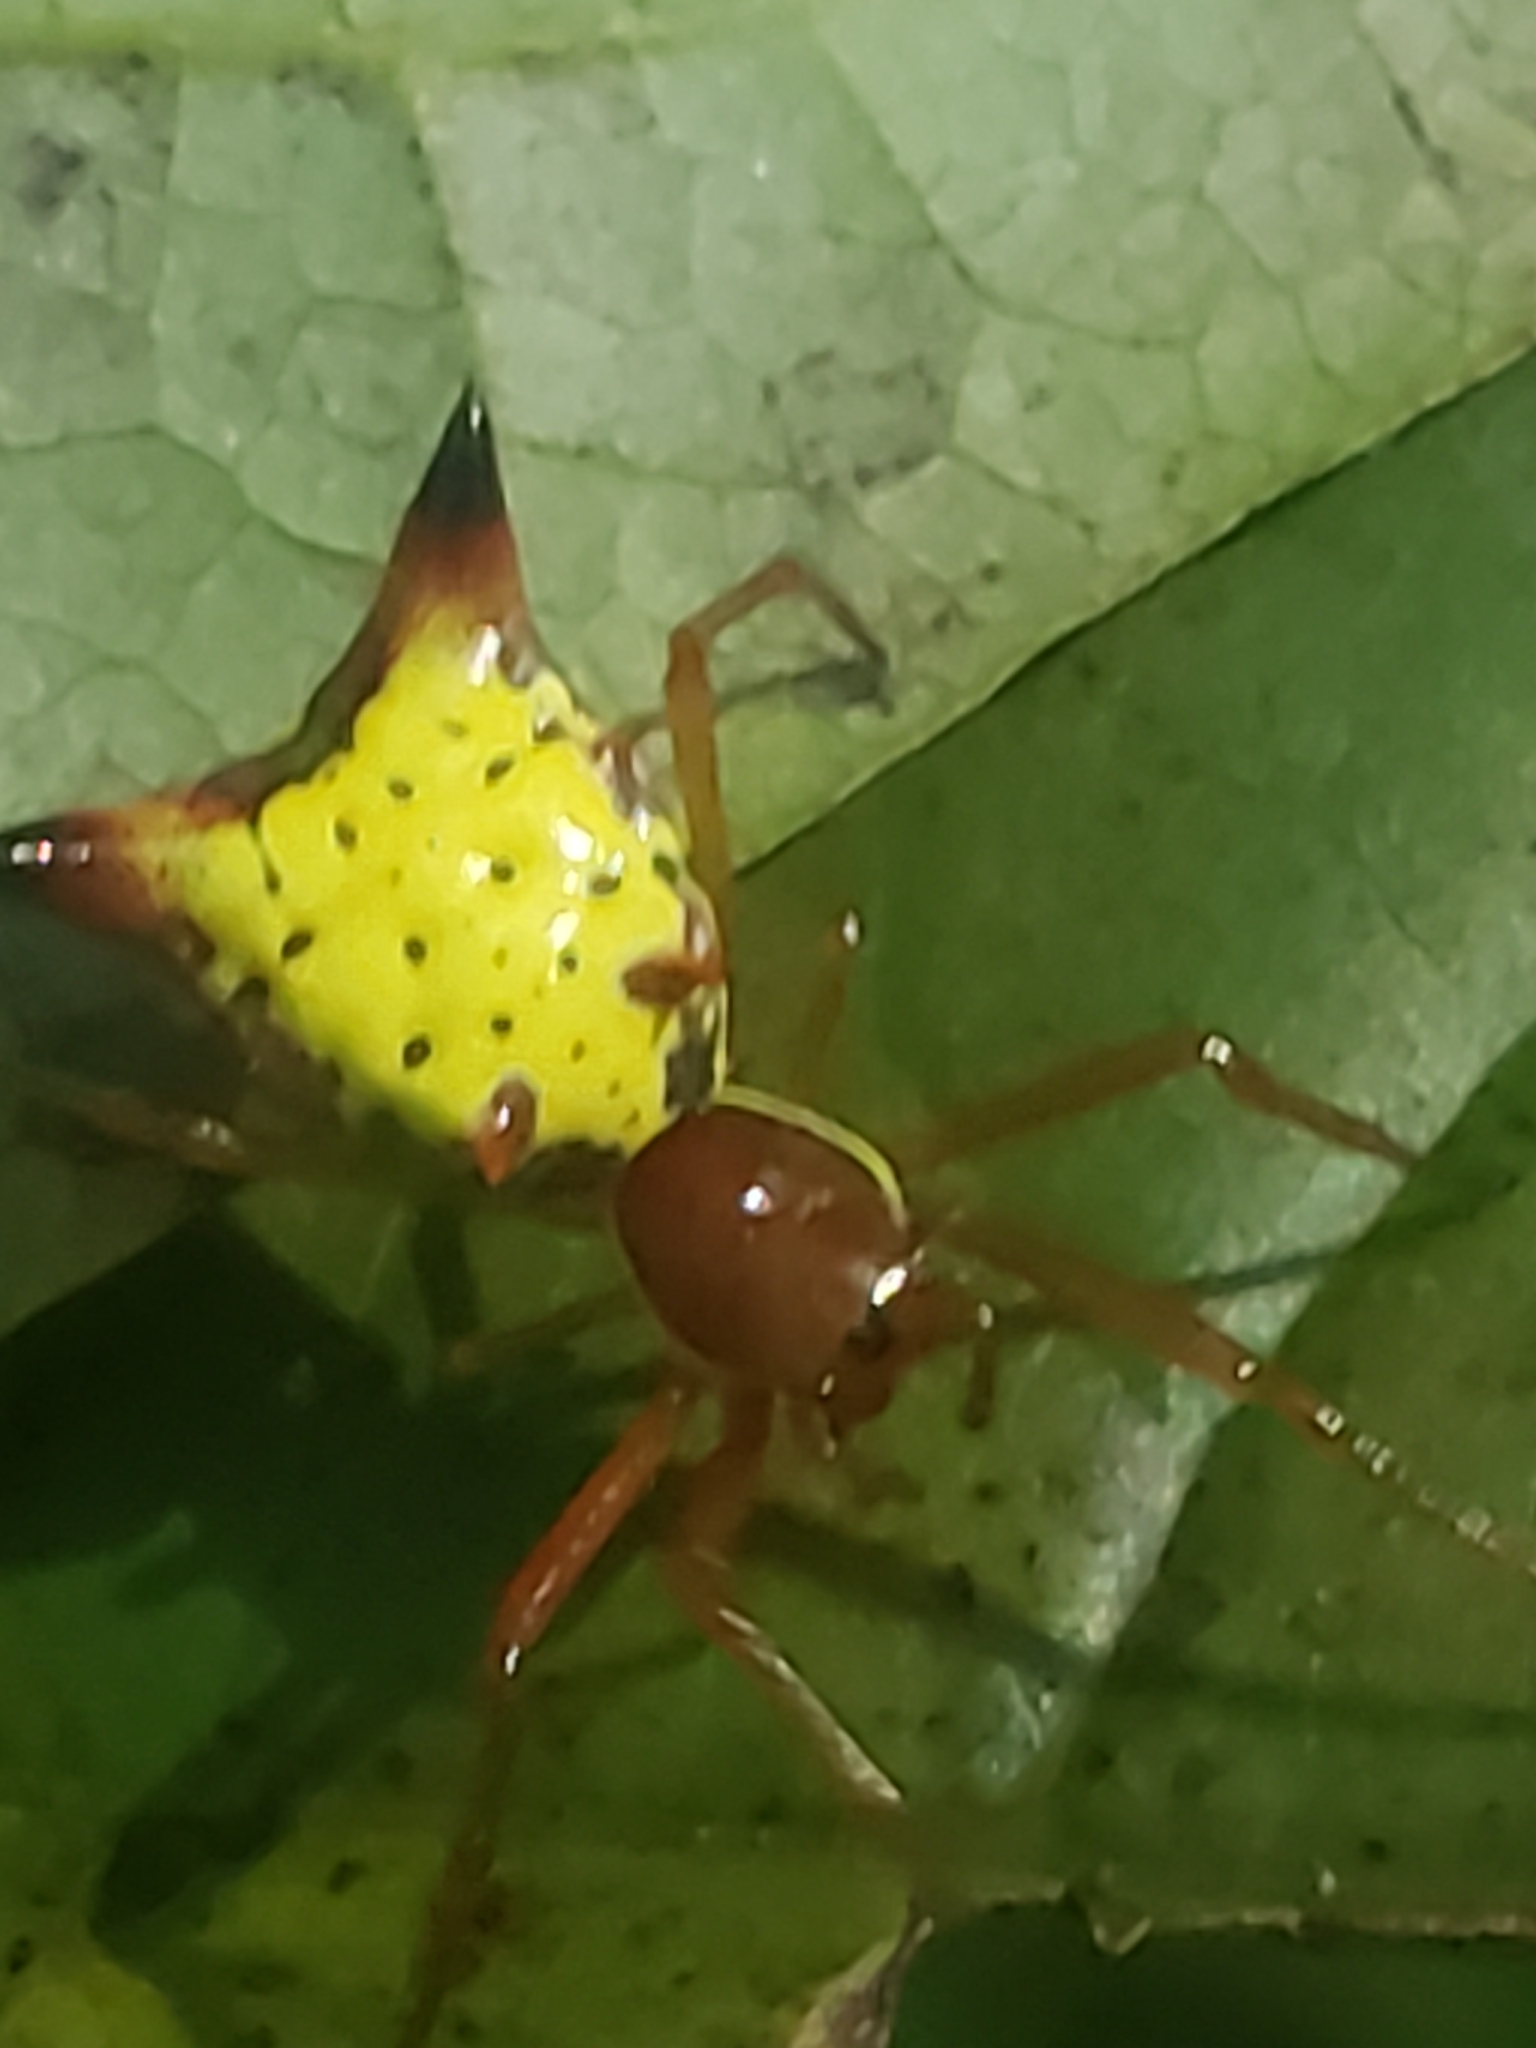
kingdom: Animalia
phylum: Arthropoda
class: Arachnida
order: Araneae
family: Araneidae
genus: Micrathena
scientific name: Micrathena sagittata
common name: Orb weavers
